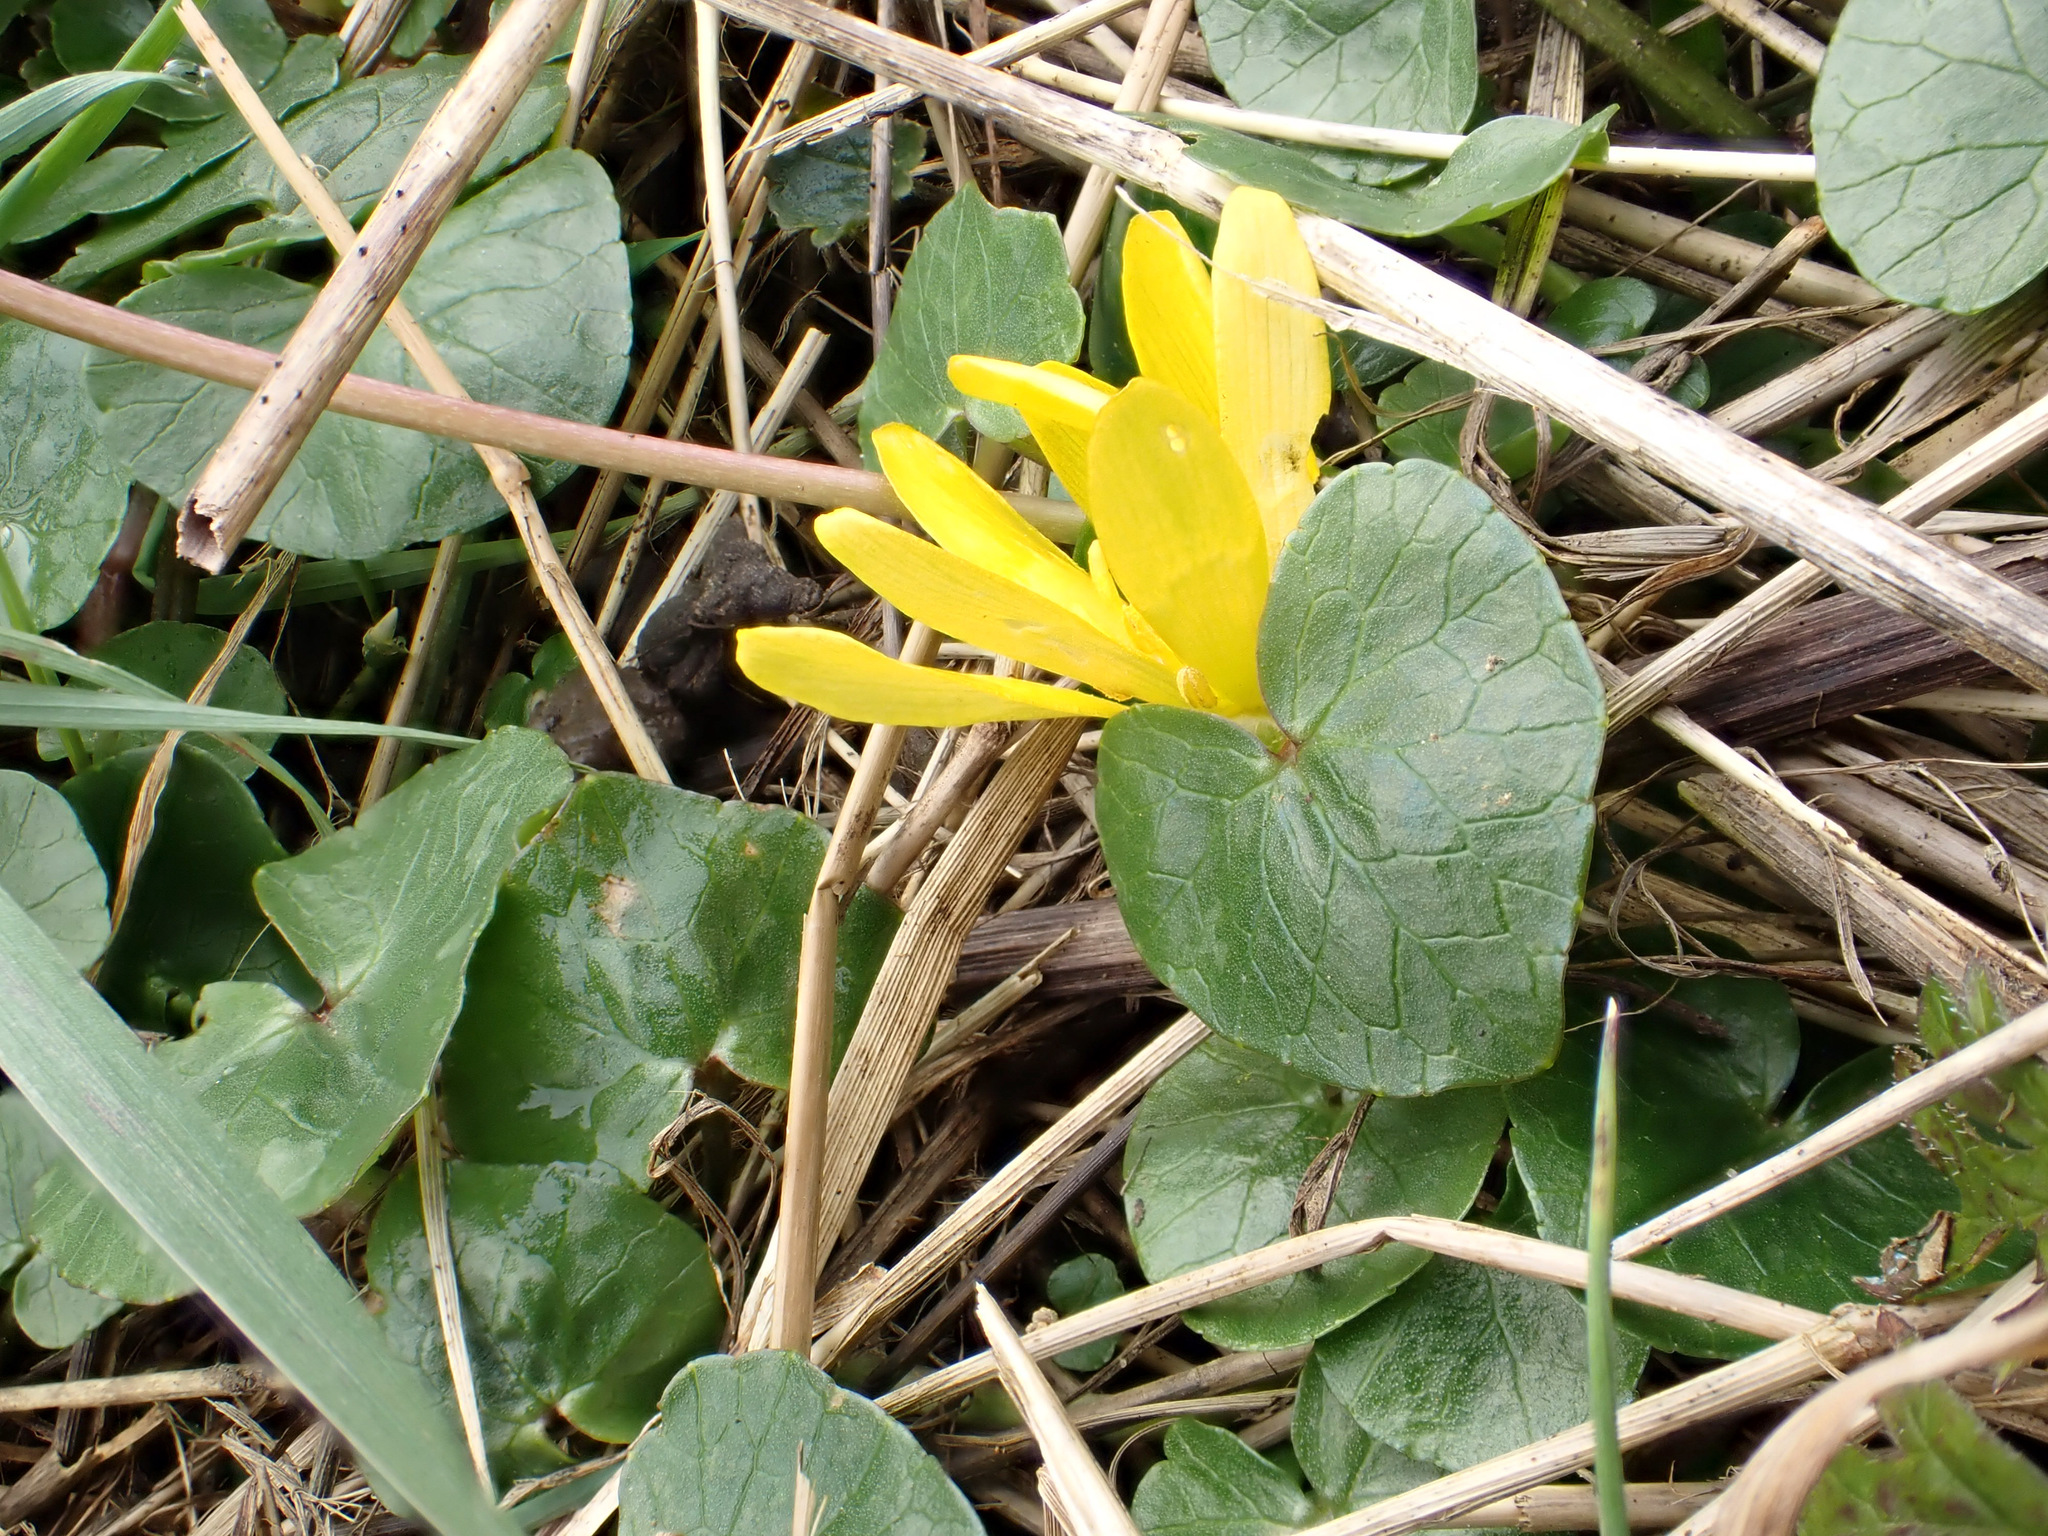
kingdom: Plantae
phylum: Tracheophyta
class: Magnoliopsida
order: Ranunculales
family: Ranunculaceae
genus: Ficaria
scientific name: Ficaria verna
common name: Lesser celandine
